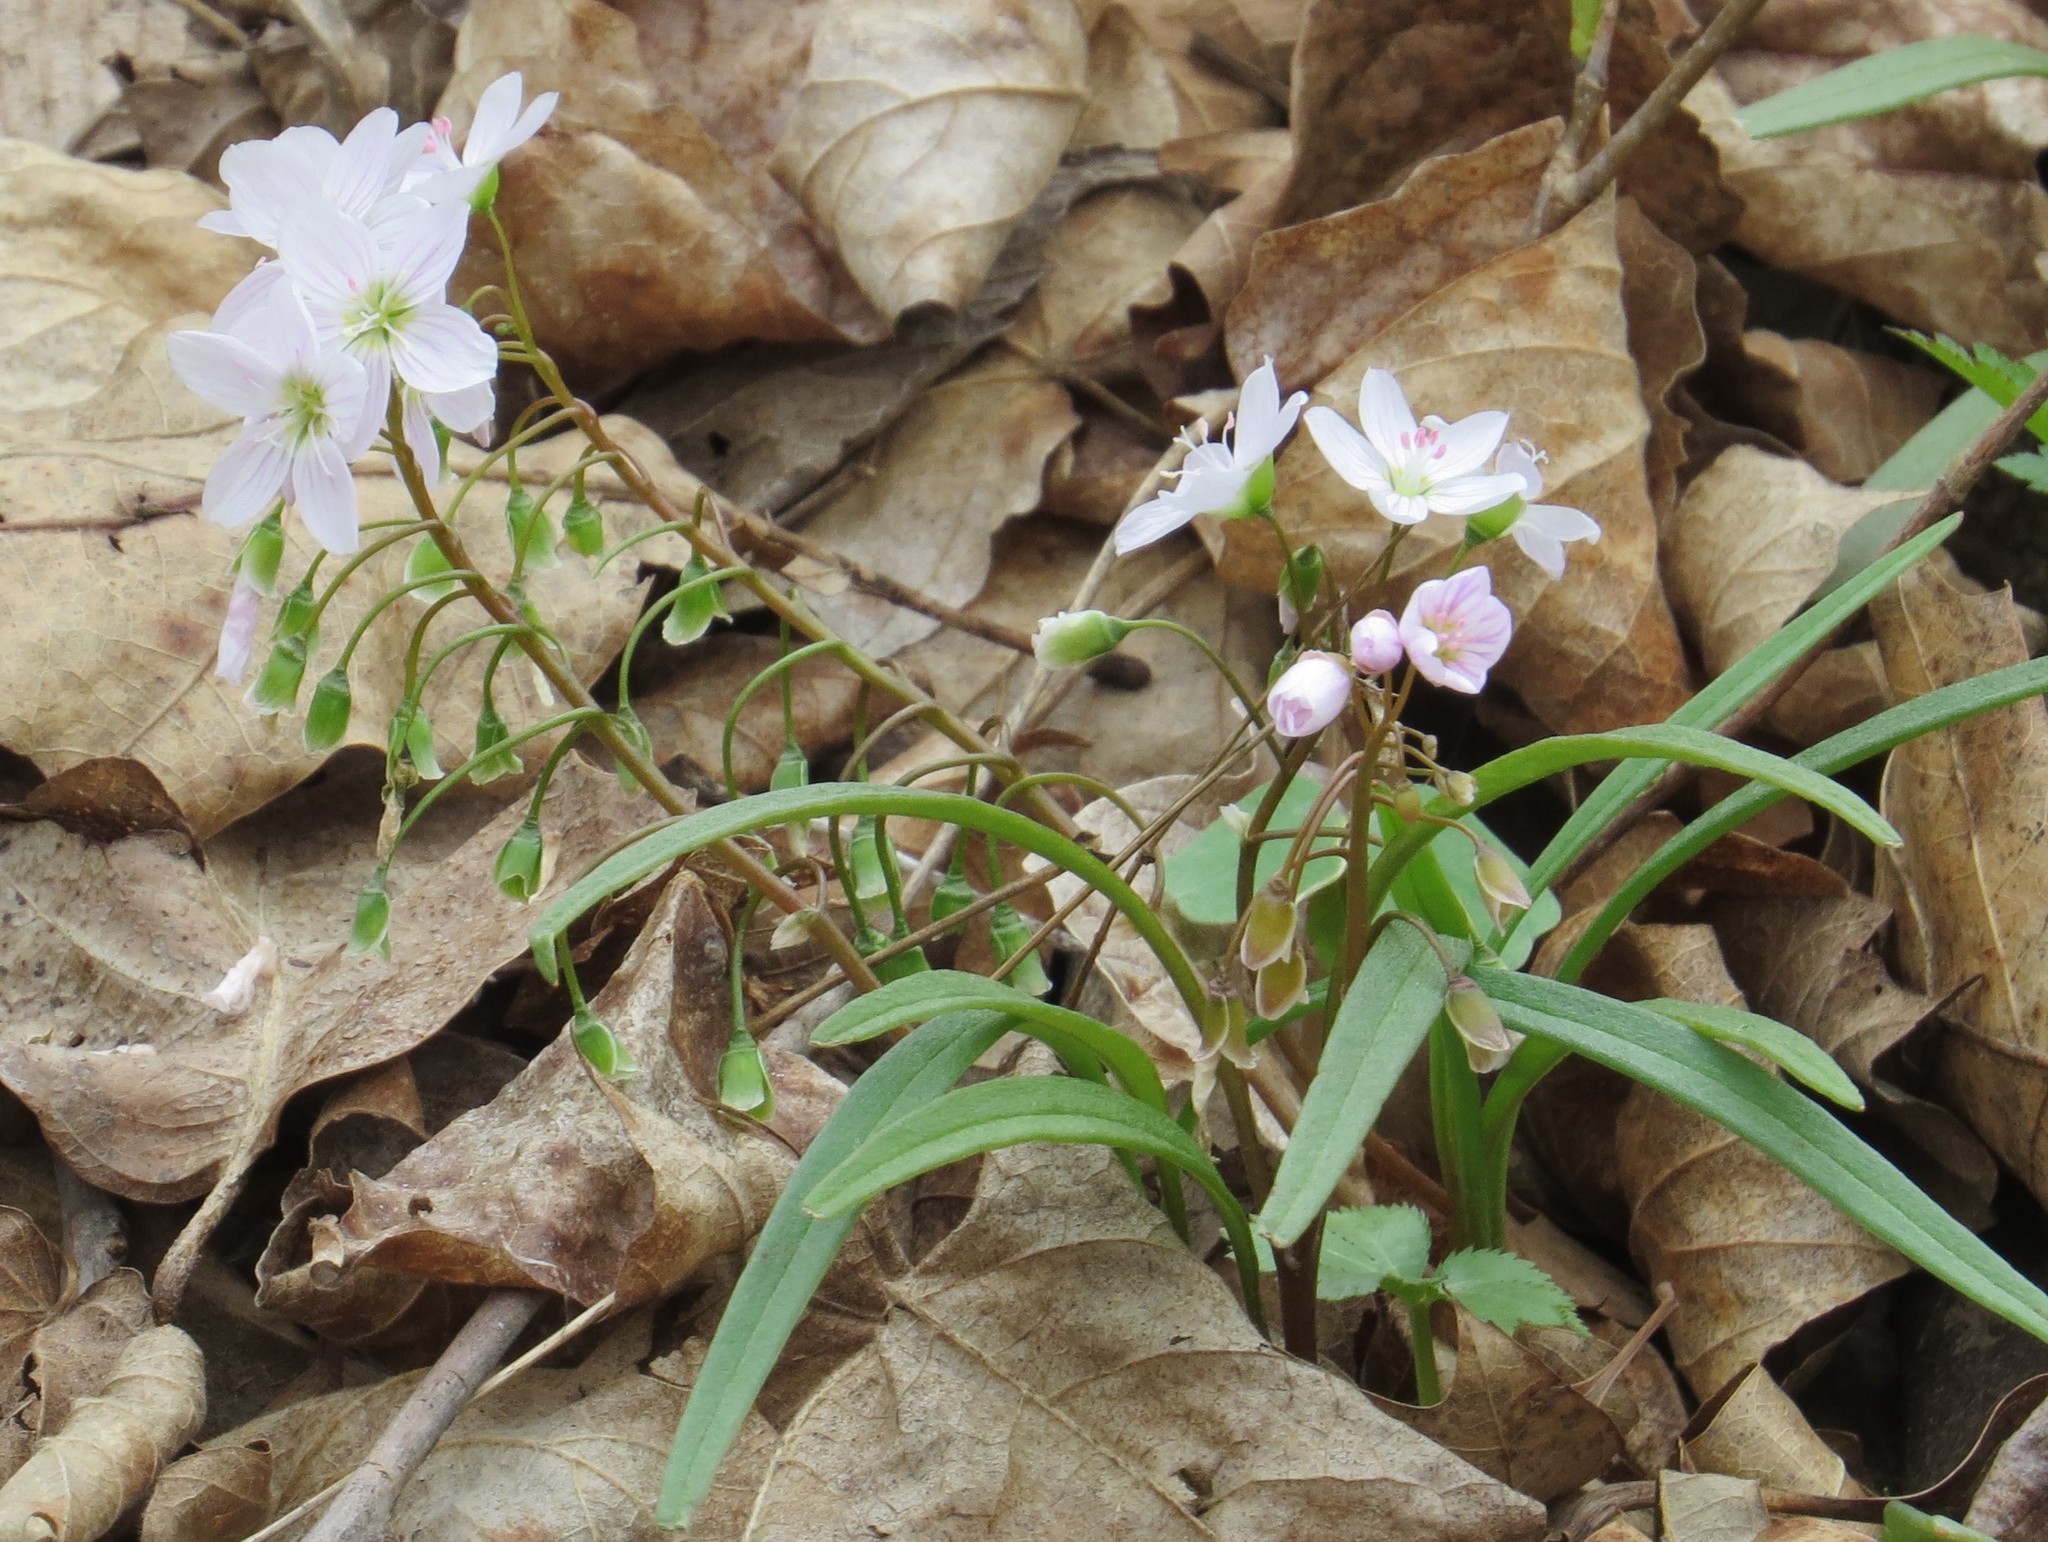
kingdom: Plantae
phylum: Tracheophyta
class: Magnoliopsida
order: Caryophyllales
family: Montiaceae
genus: Claytonia
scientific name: Claytonia virginica
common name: Virginia springbeauty
